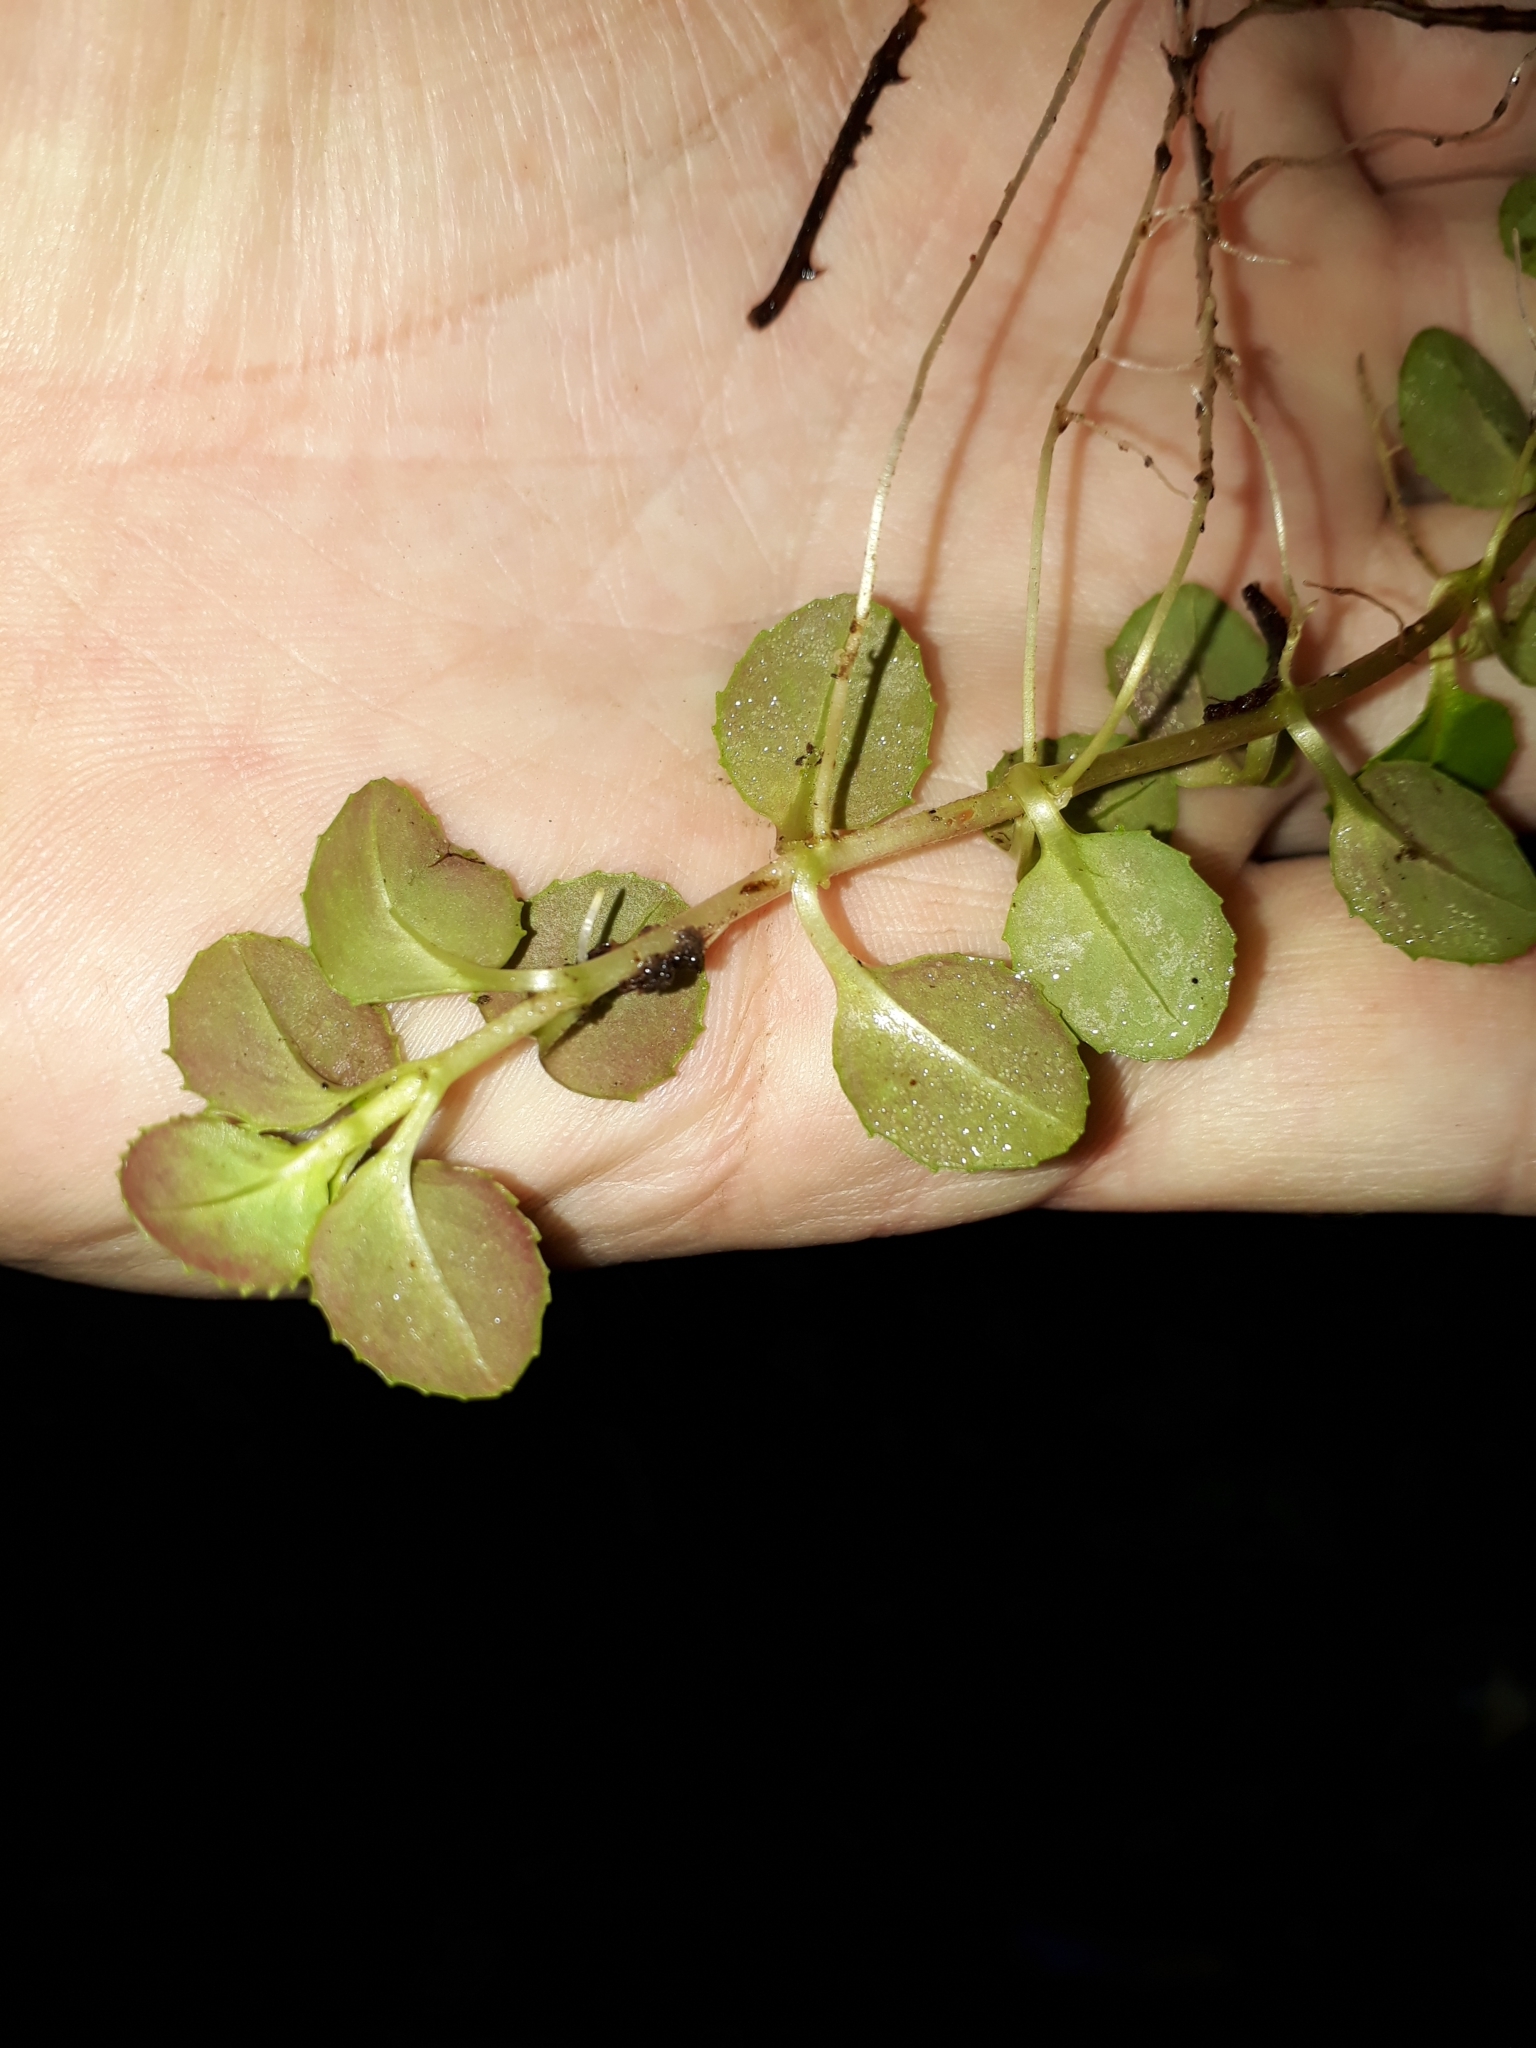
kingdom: Plantae
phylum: Tracheophyta
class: Magnoliopsida
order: Myrtales
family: Onagraceae
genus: Epilobium
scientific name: Epilobium rotundifolium
